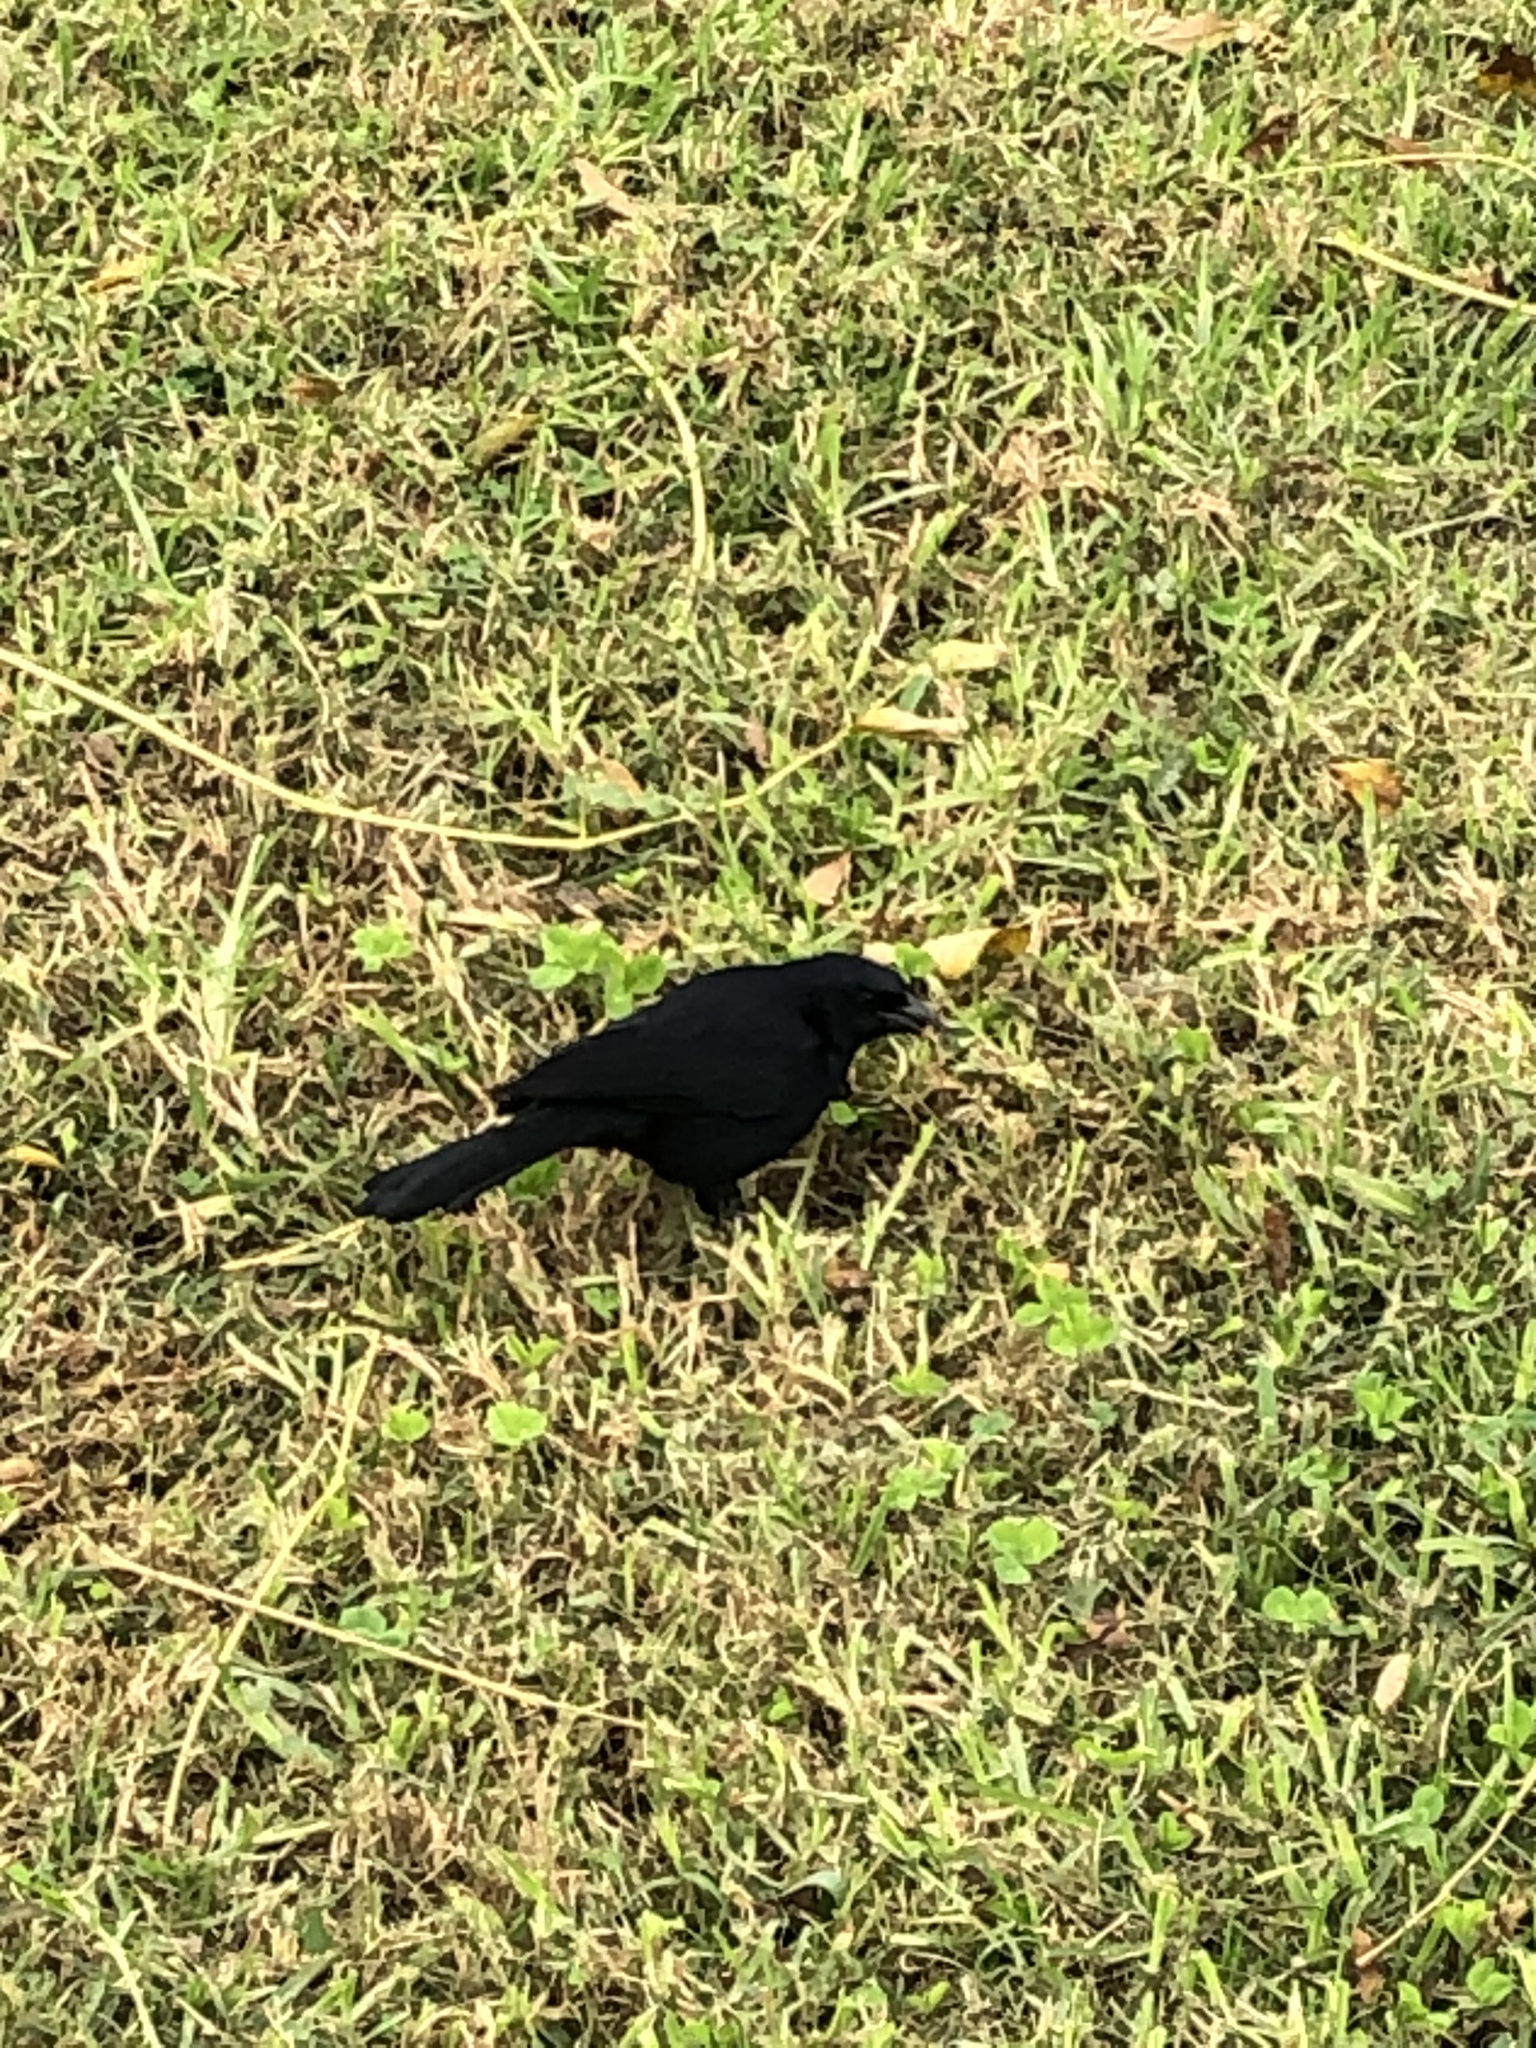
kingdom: Animalia
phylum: Chordata
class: Aves
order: Passeriformes
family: Icteridae
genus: Dives
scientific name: Dives warczewiczi
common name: Scrub blackbird
